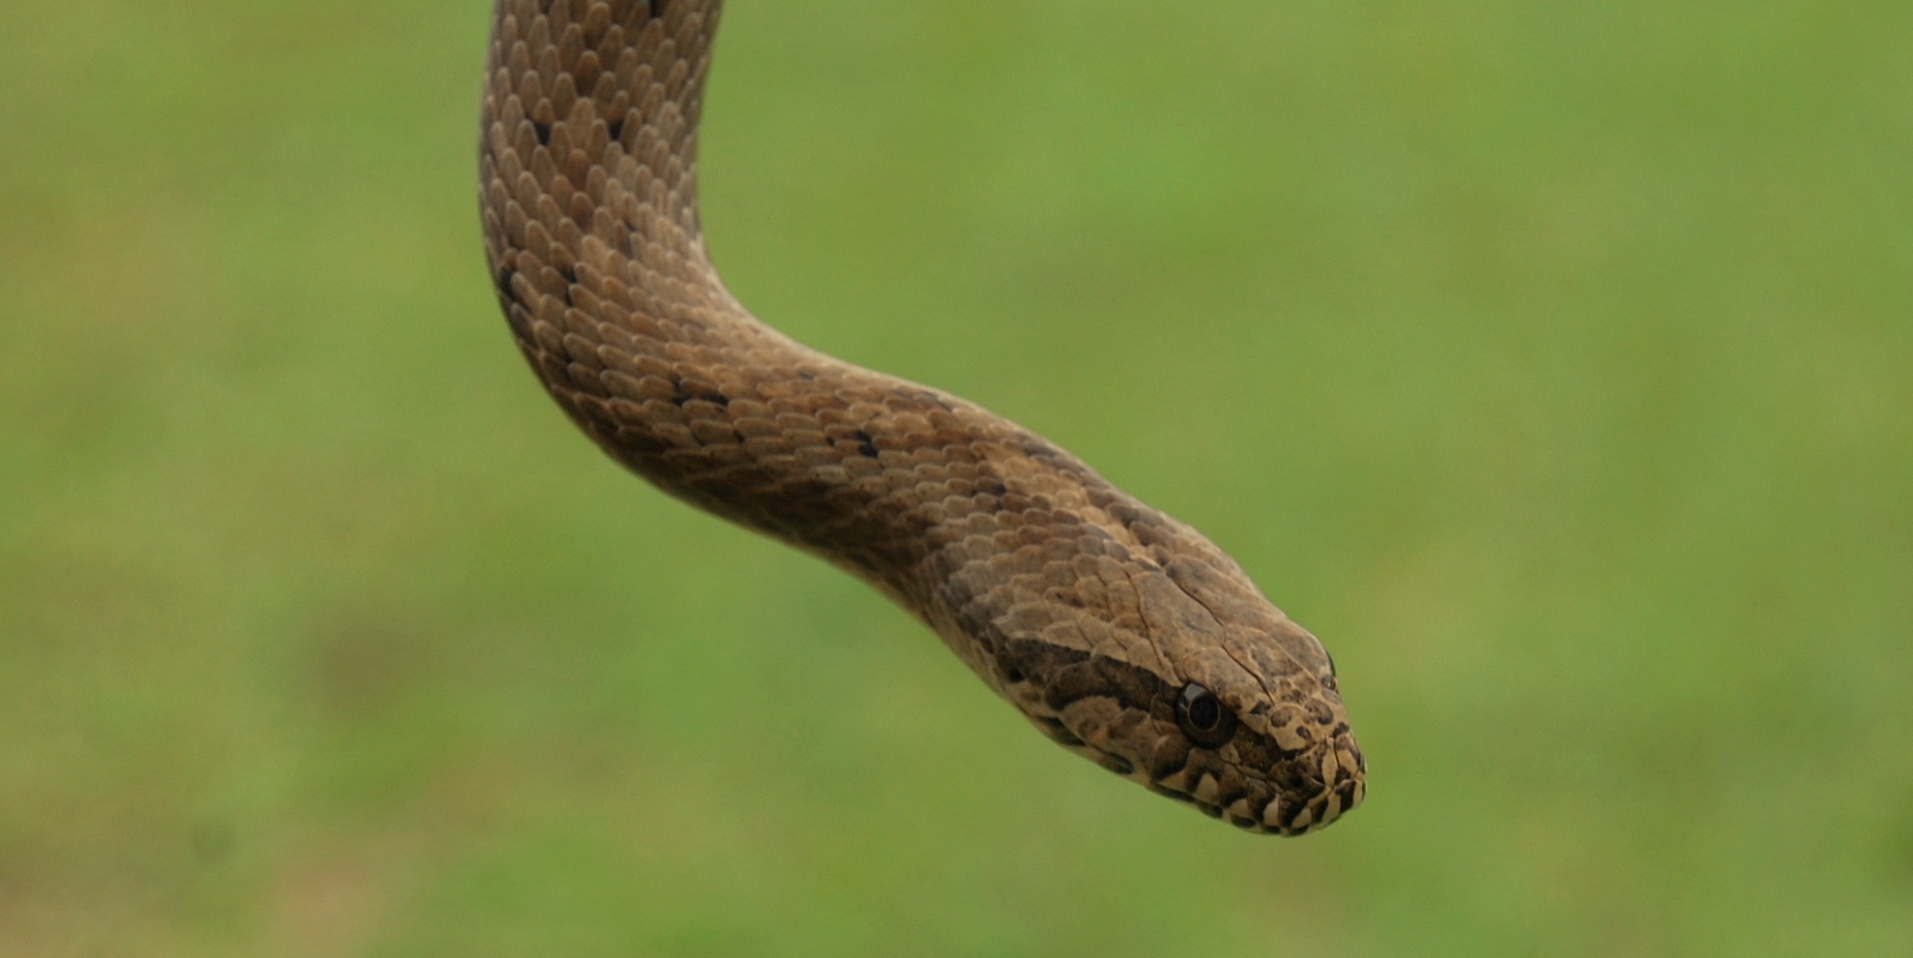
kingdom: Animalia
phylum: Chordata
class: Squamata
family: Colubridae
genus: Mesotes
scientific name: Mesotes
